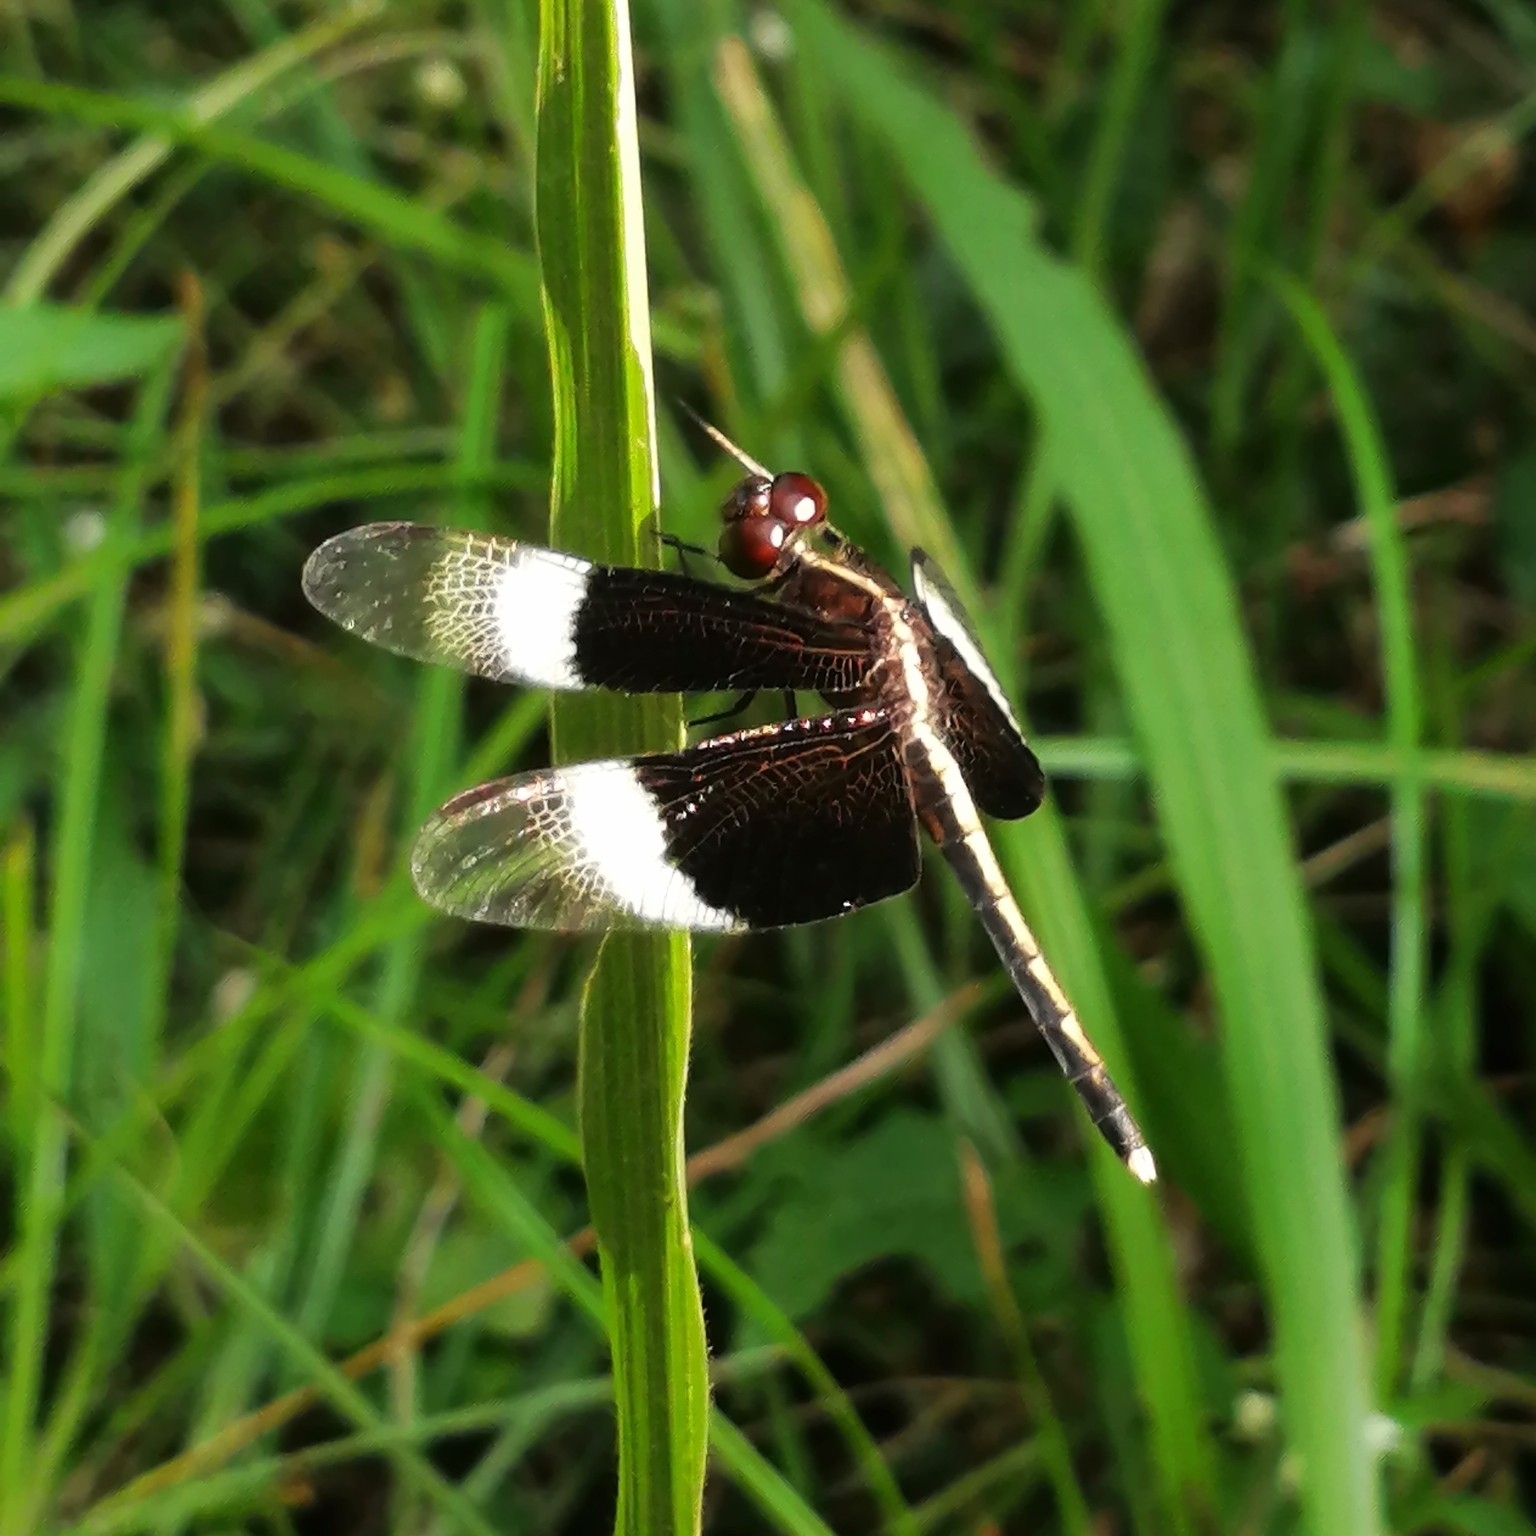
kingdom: Animalia
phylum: Arthropoda
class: Insecta
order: Odonata
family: Libellulidae
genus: Neurothemis
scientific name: Neurothemis tullia
